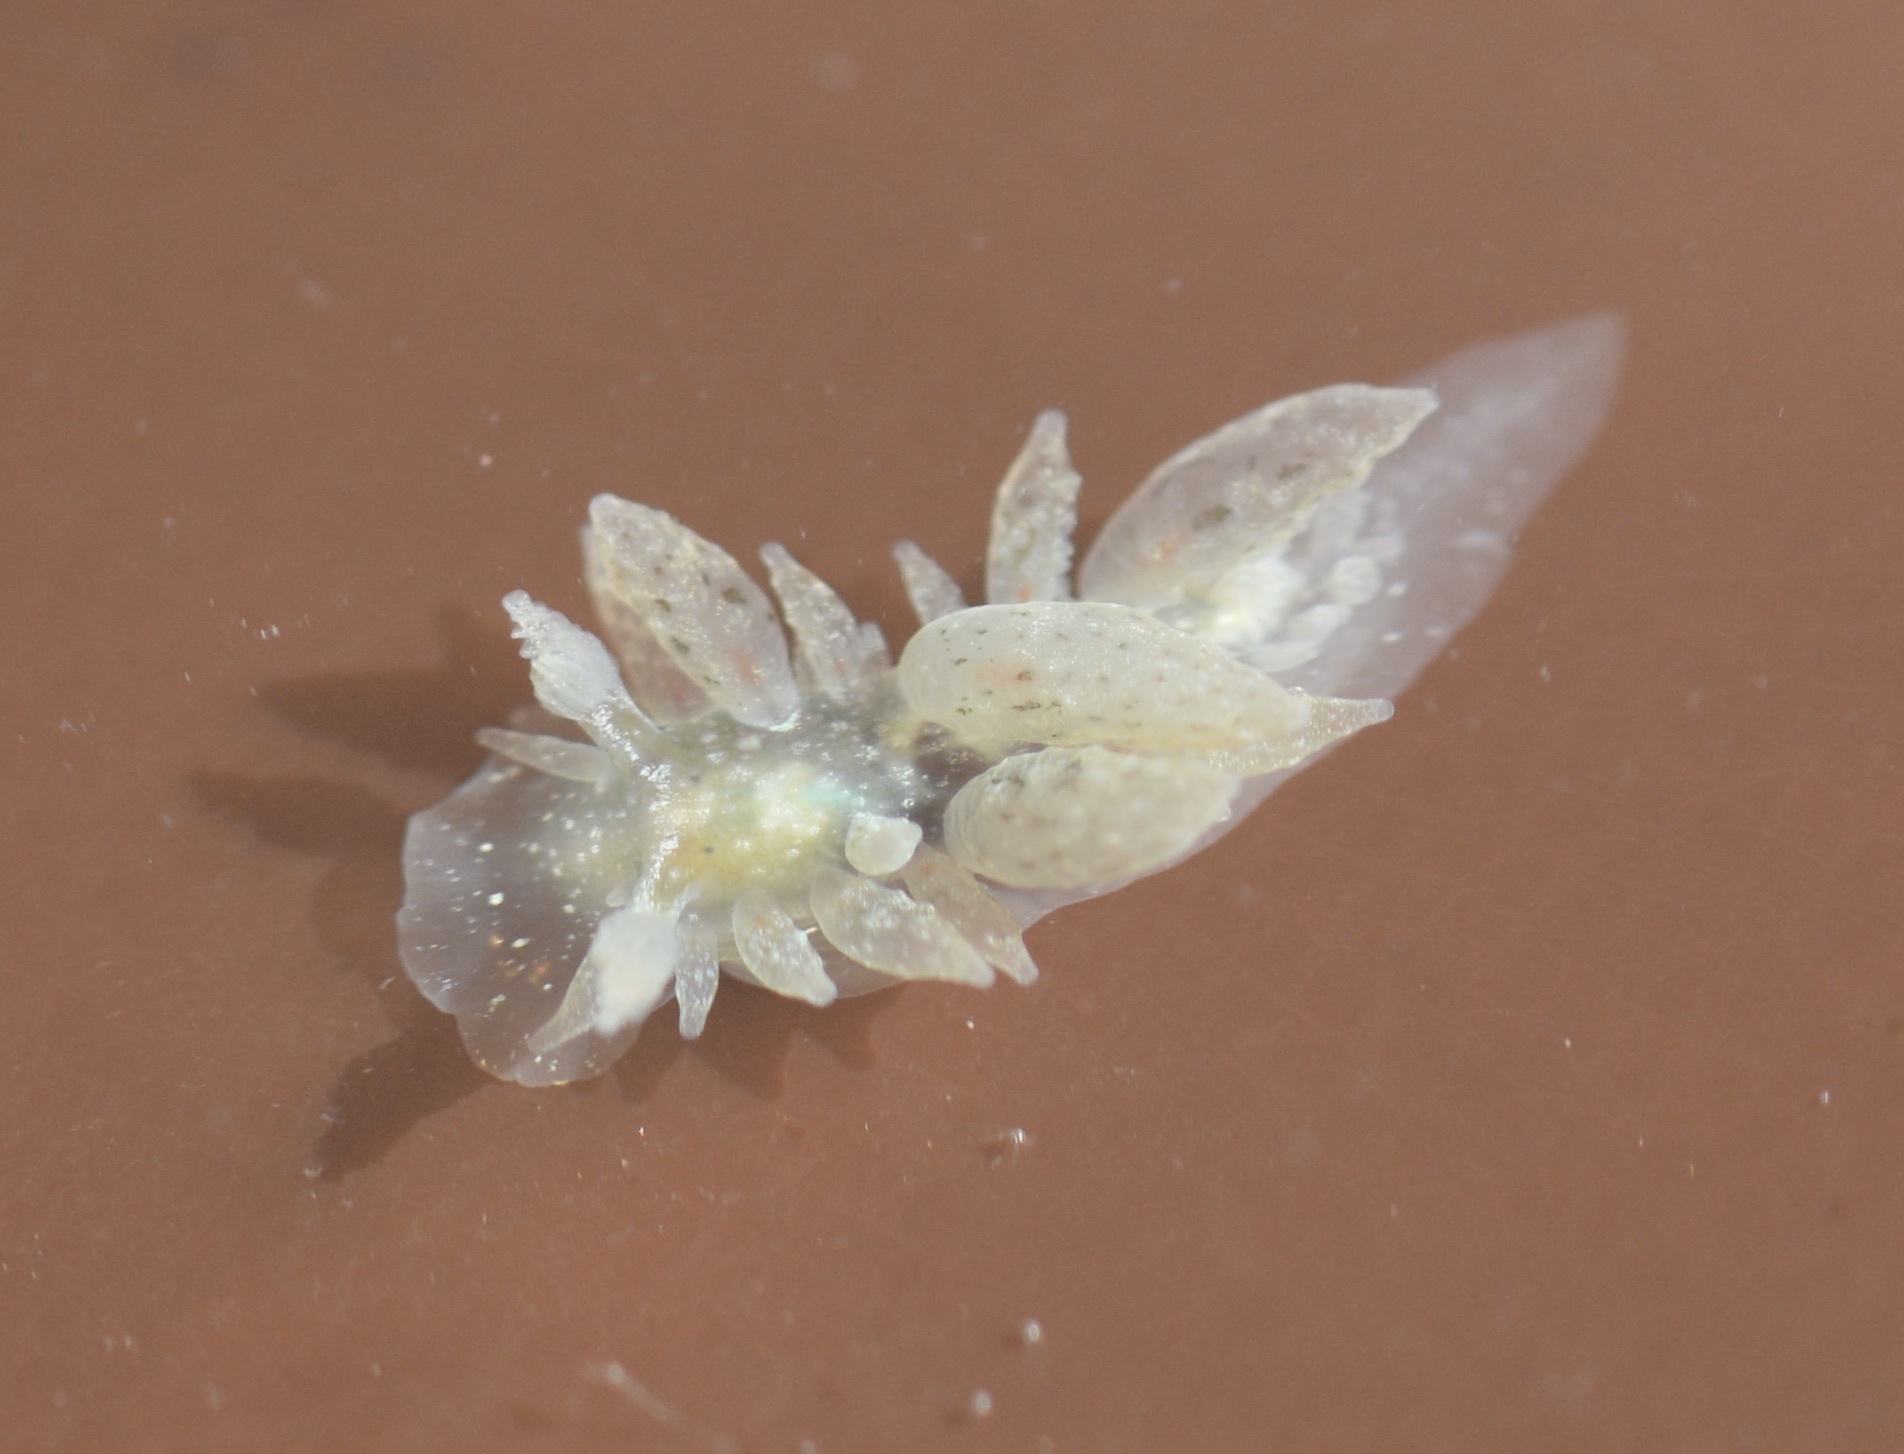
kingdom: Animalia
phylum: Mollusca
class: Gastropoda
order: Nudibranchia
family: Dironidae
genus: Dirona
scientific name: Dirona picta
